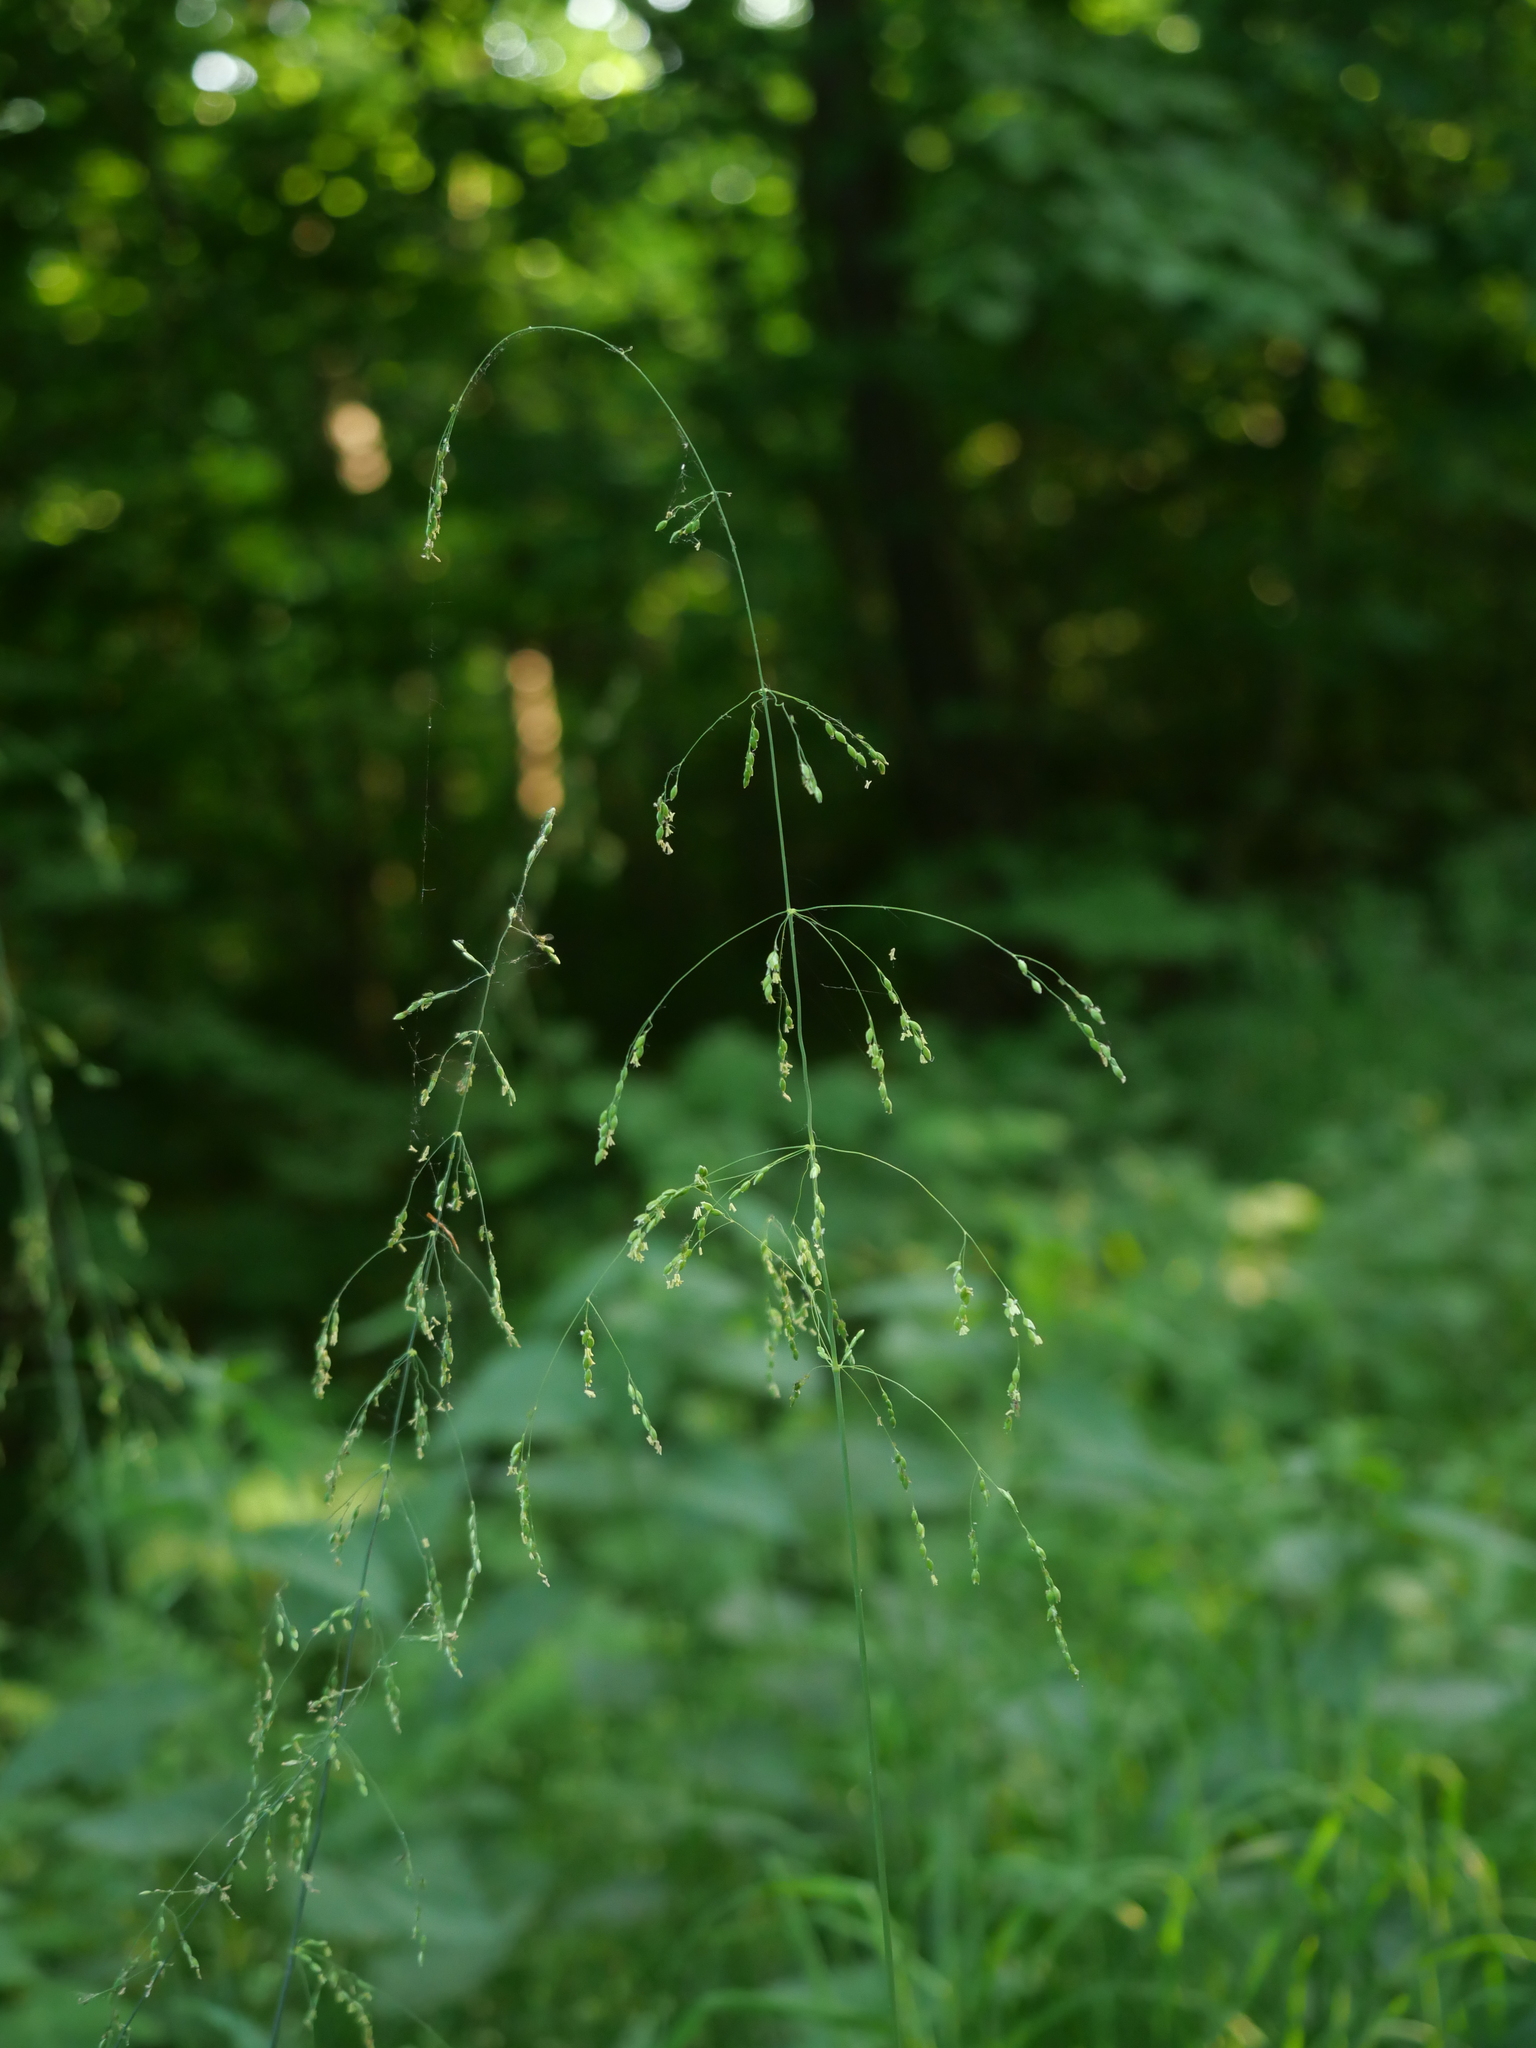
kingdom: Plantae
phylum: Tracheophyta
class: Liliopsida
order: Poales
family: Poaceae
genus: Milium
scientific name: Milium effusum
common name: Wood millet
